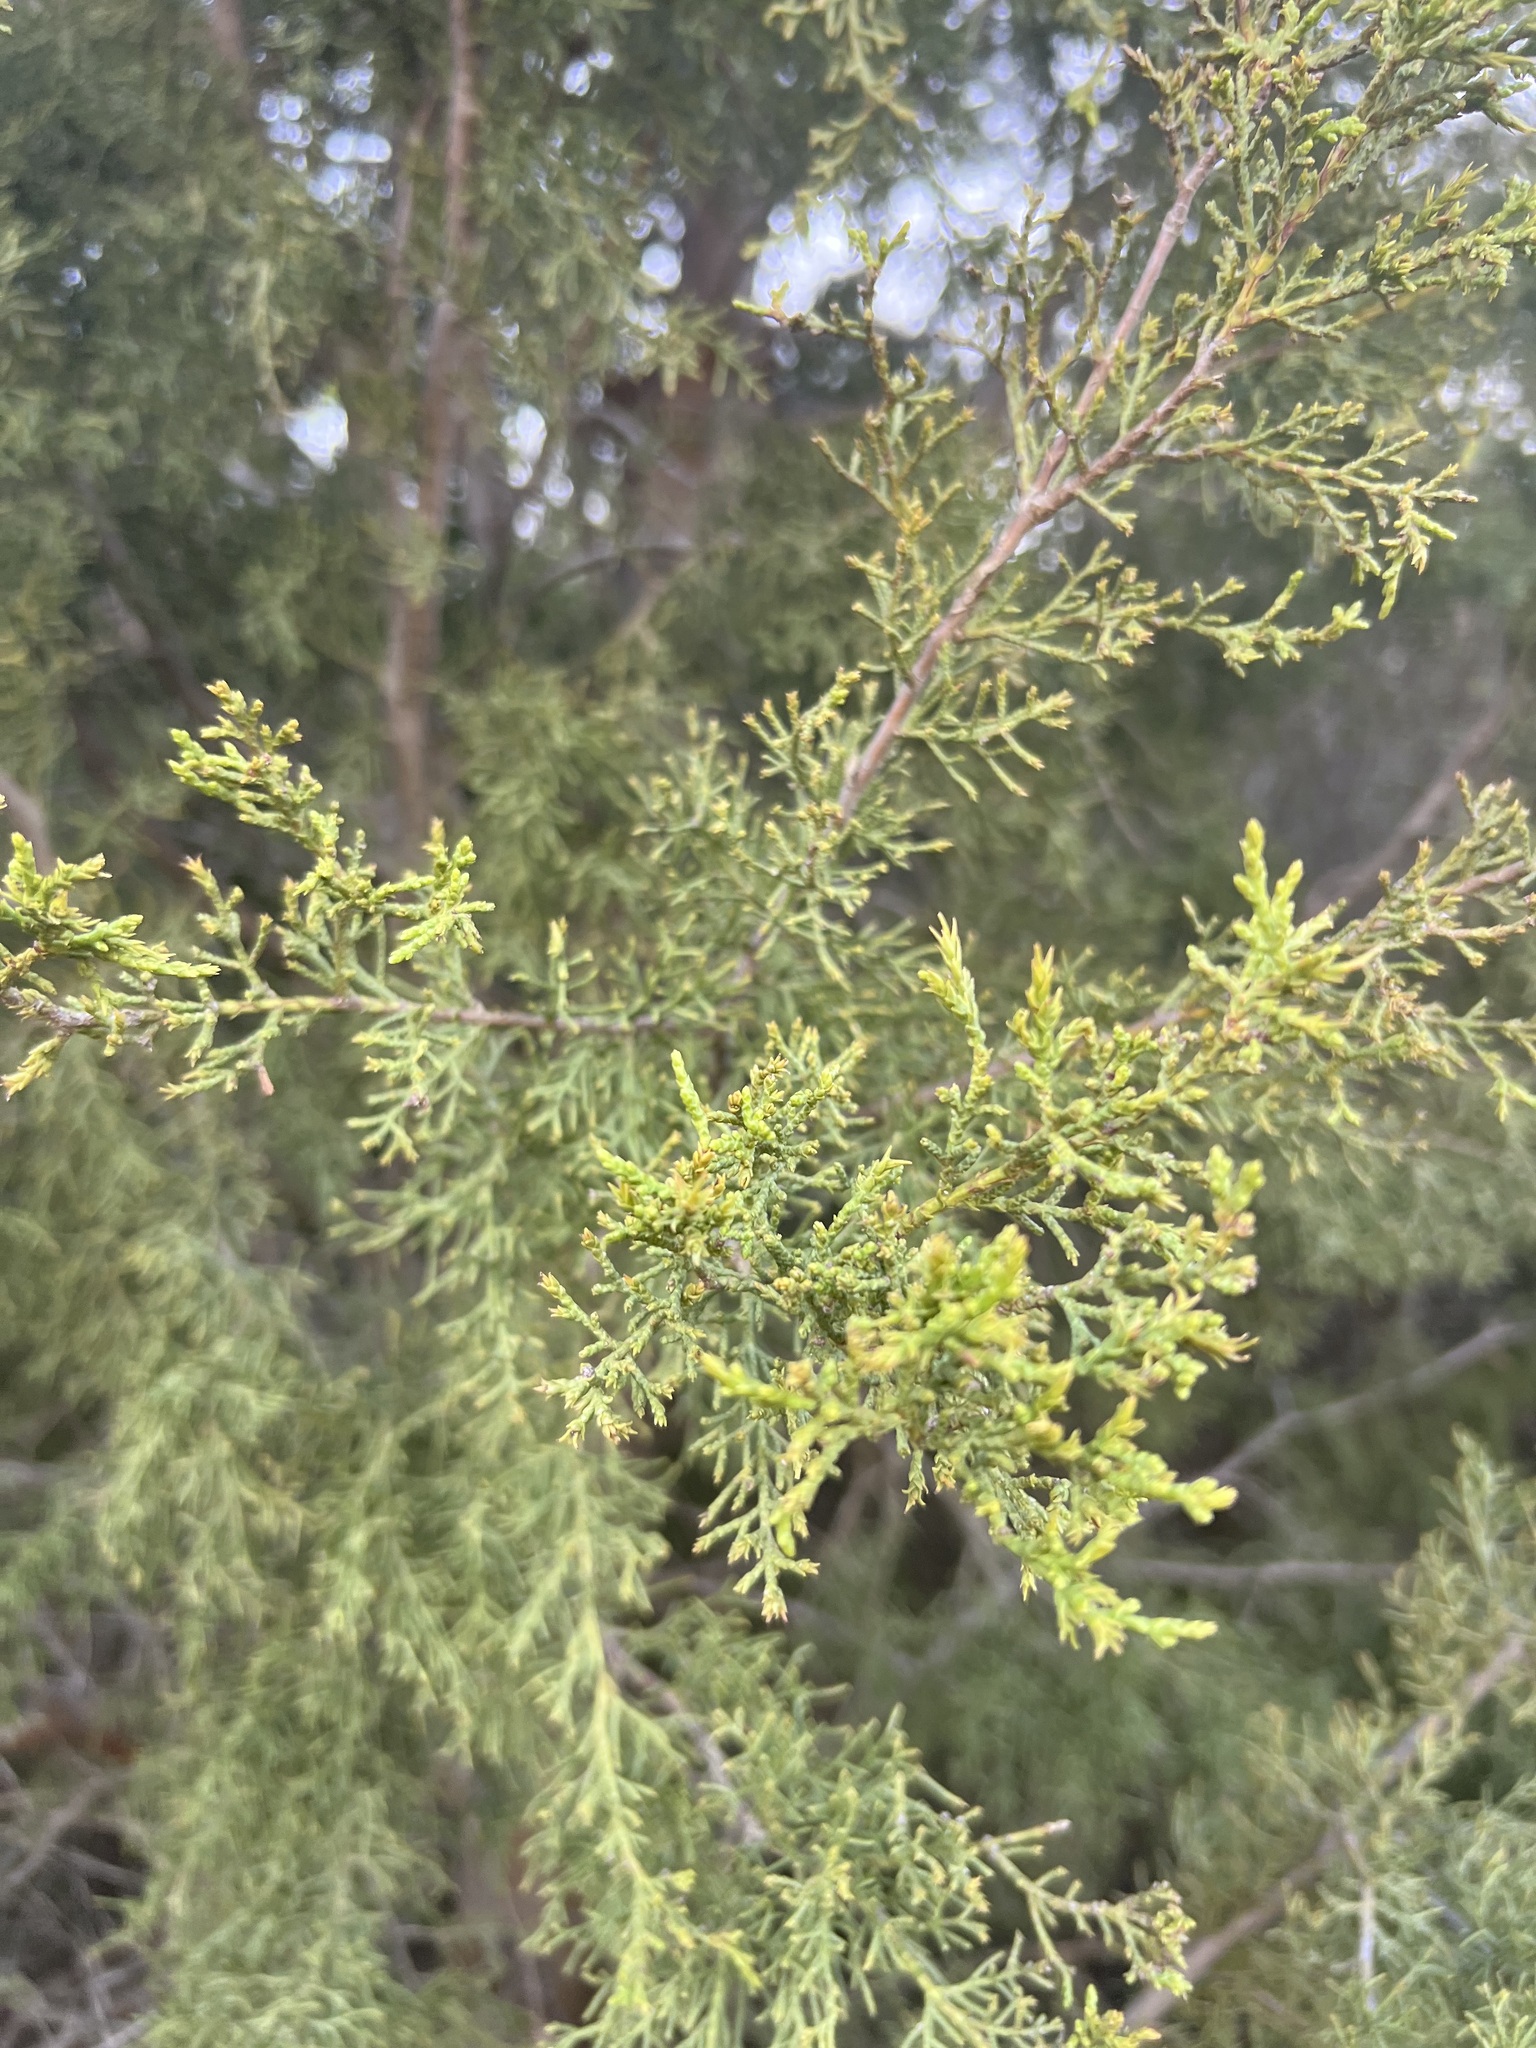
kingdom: Plantae
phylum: Tracheophyta
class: Pinopsida
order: Pinales
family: Cupressaceae
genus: Cupressus
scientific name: Cupressus guadalupensis
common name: Forbes cypress
